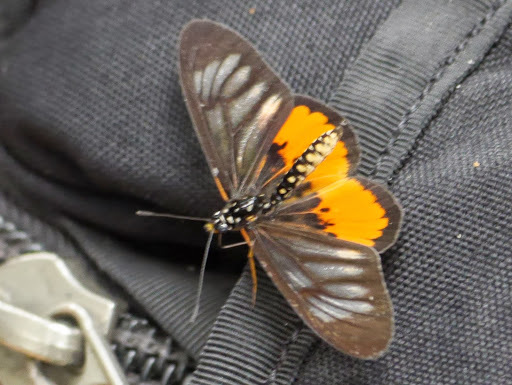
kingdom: Animalia
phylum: Arthropoda
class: Insecta
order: Lepidoptera
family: Nymphalidae
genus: Acraea
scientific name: Acraea
